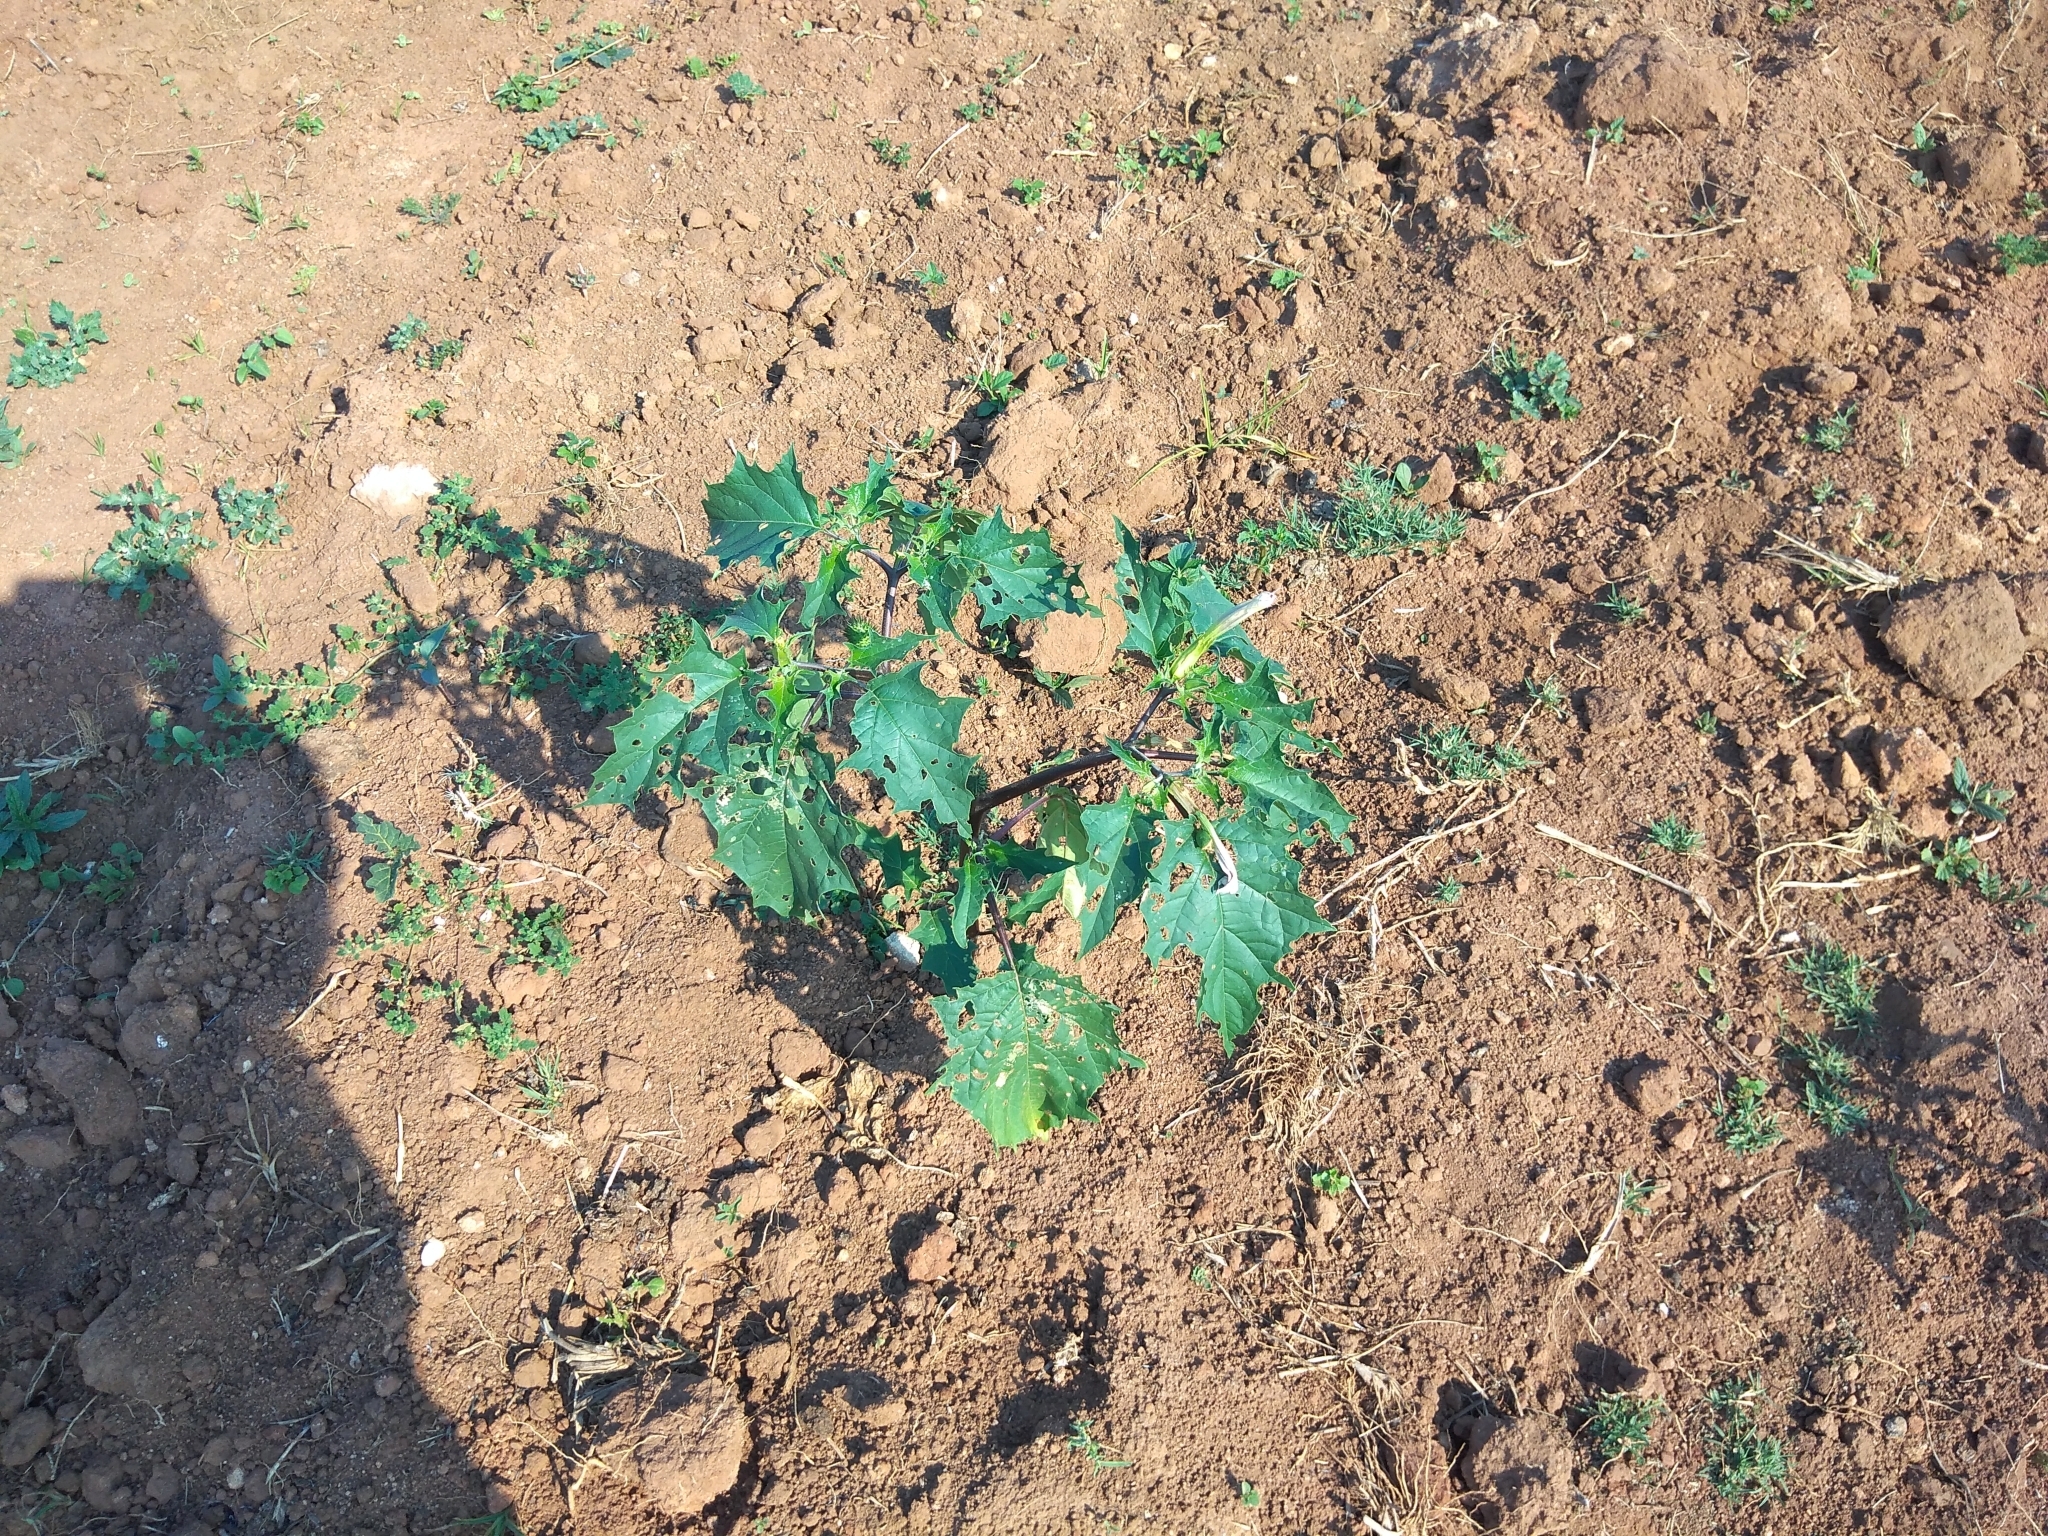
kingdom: Plantae
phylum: Tracheophyta
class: Magnoliopsida
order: Solanales
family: Solanaceae
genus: Datura
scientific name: Datura stramonium
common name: Thorn-apple
